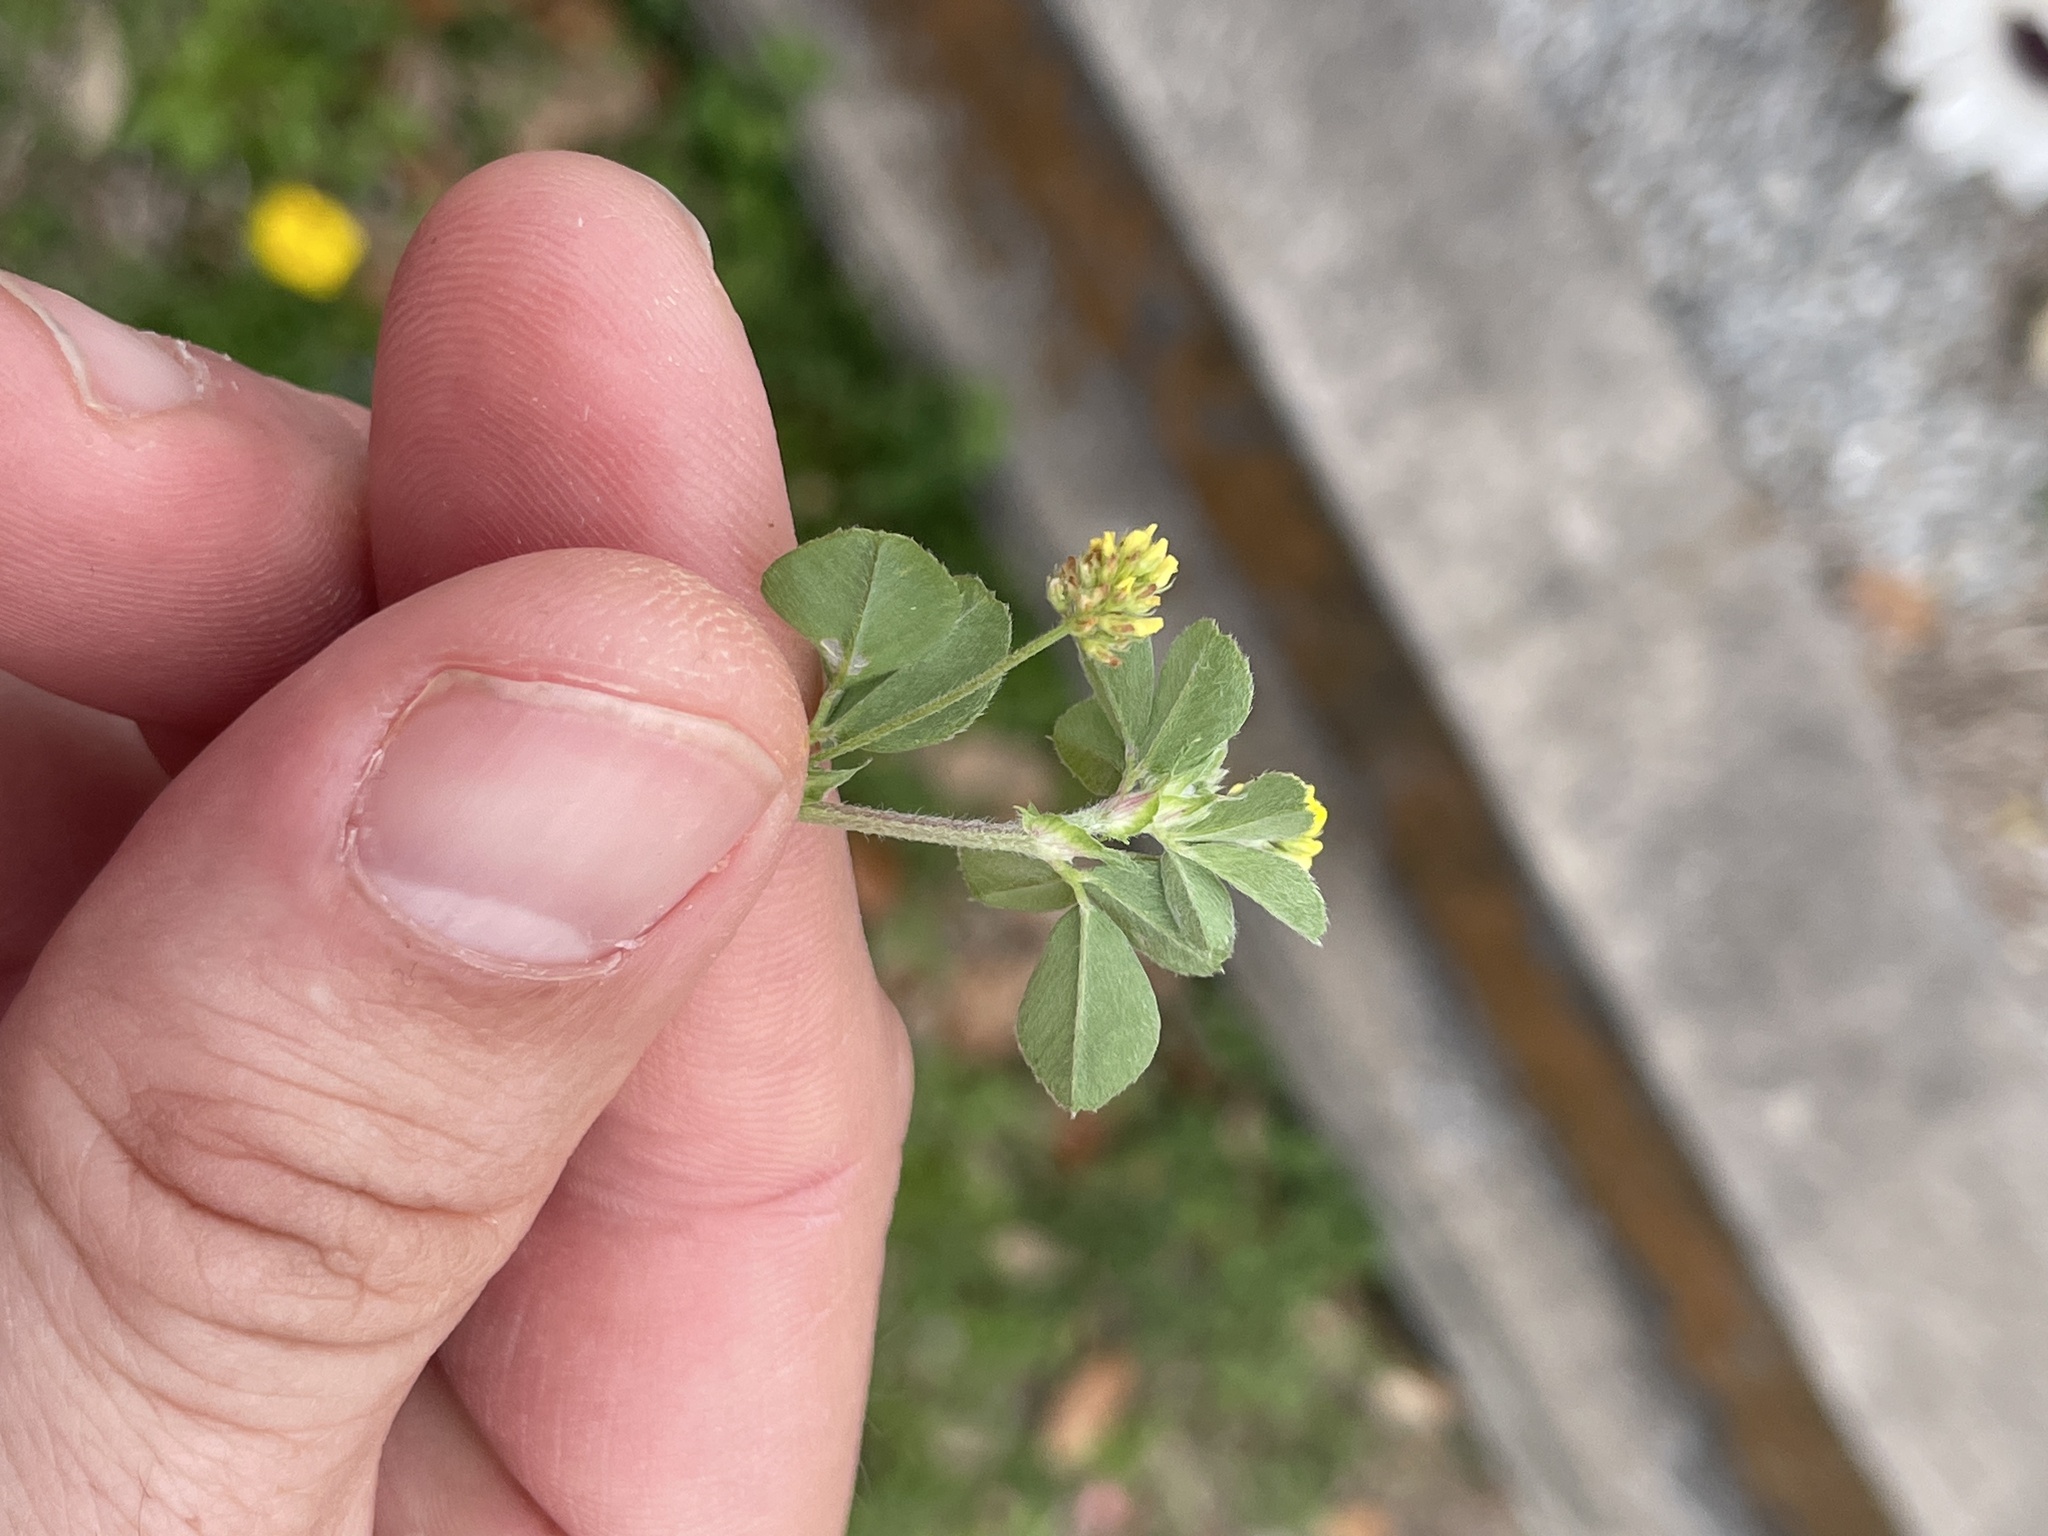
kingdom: Plantae
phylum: Tracheophyta
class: Magnoliopsida
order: Fabales
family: Fabaceae
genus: Medicago
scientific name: Medicago lupulina
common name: Black medick
